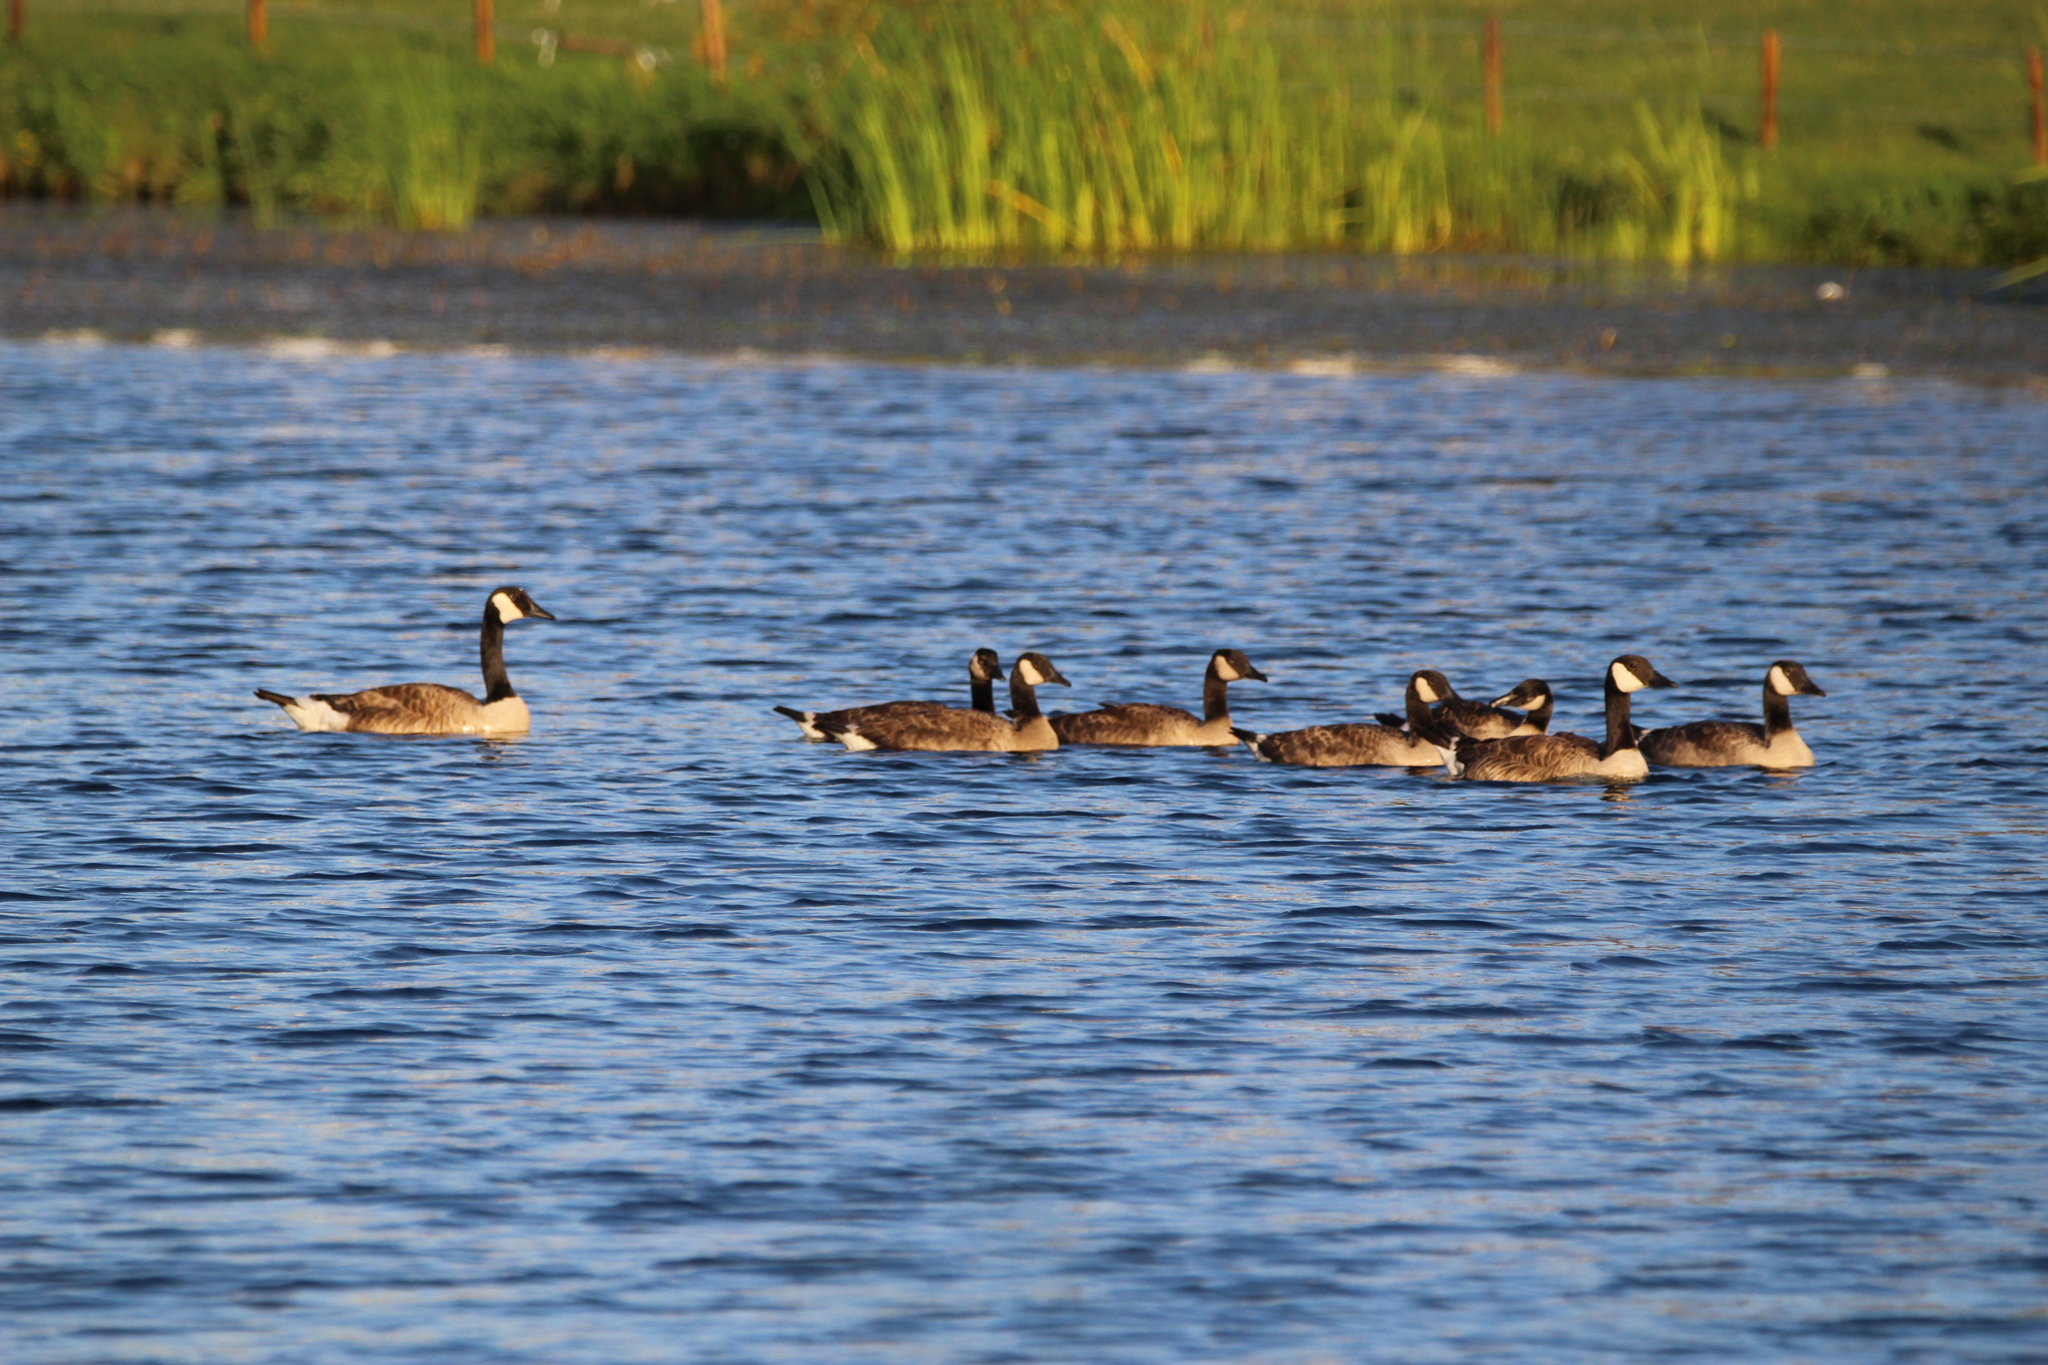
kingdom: Animalia
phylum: Chordata
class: Aves
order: Anseriformes
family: Anatidae
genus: Branta
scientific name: Branta canadensis
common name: Canada goose
